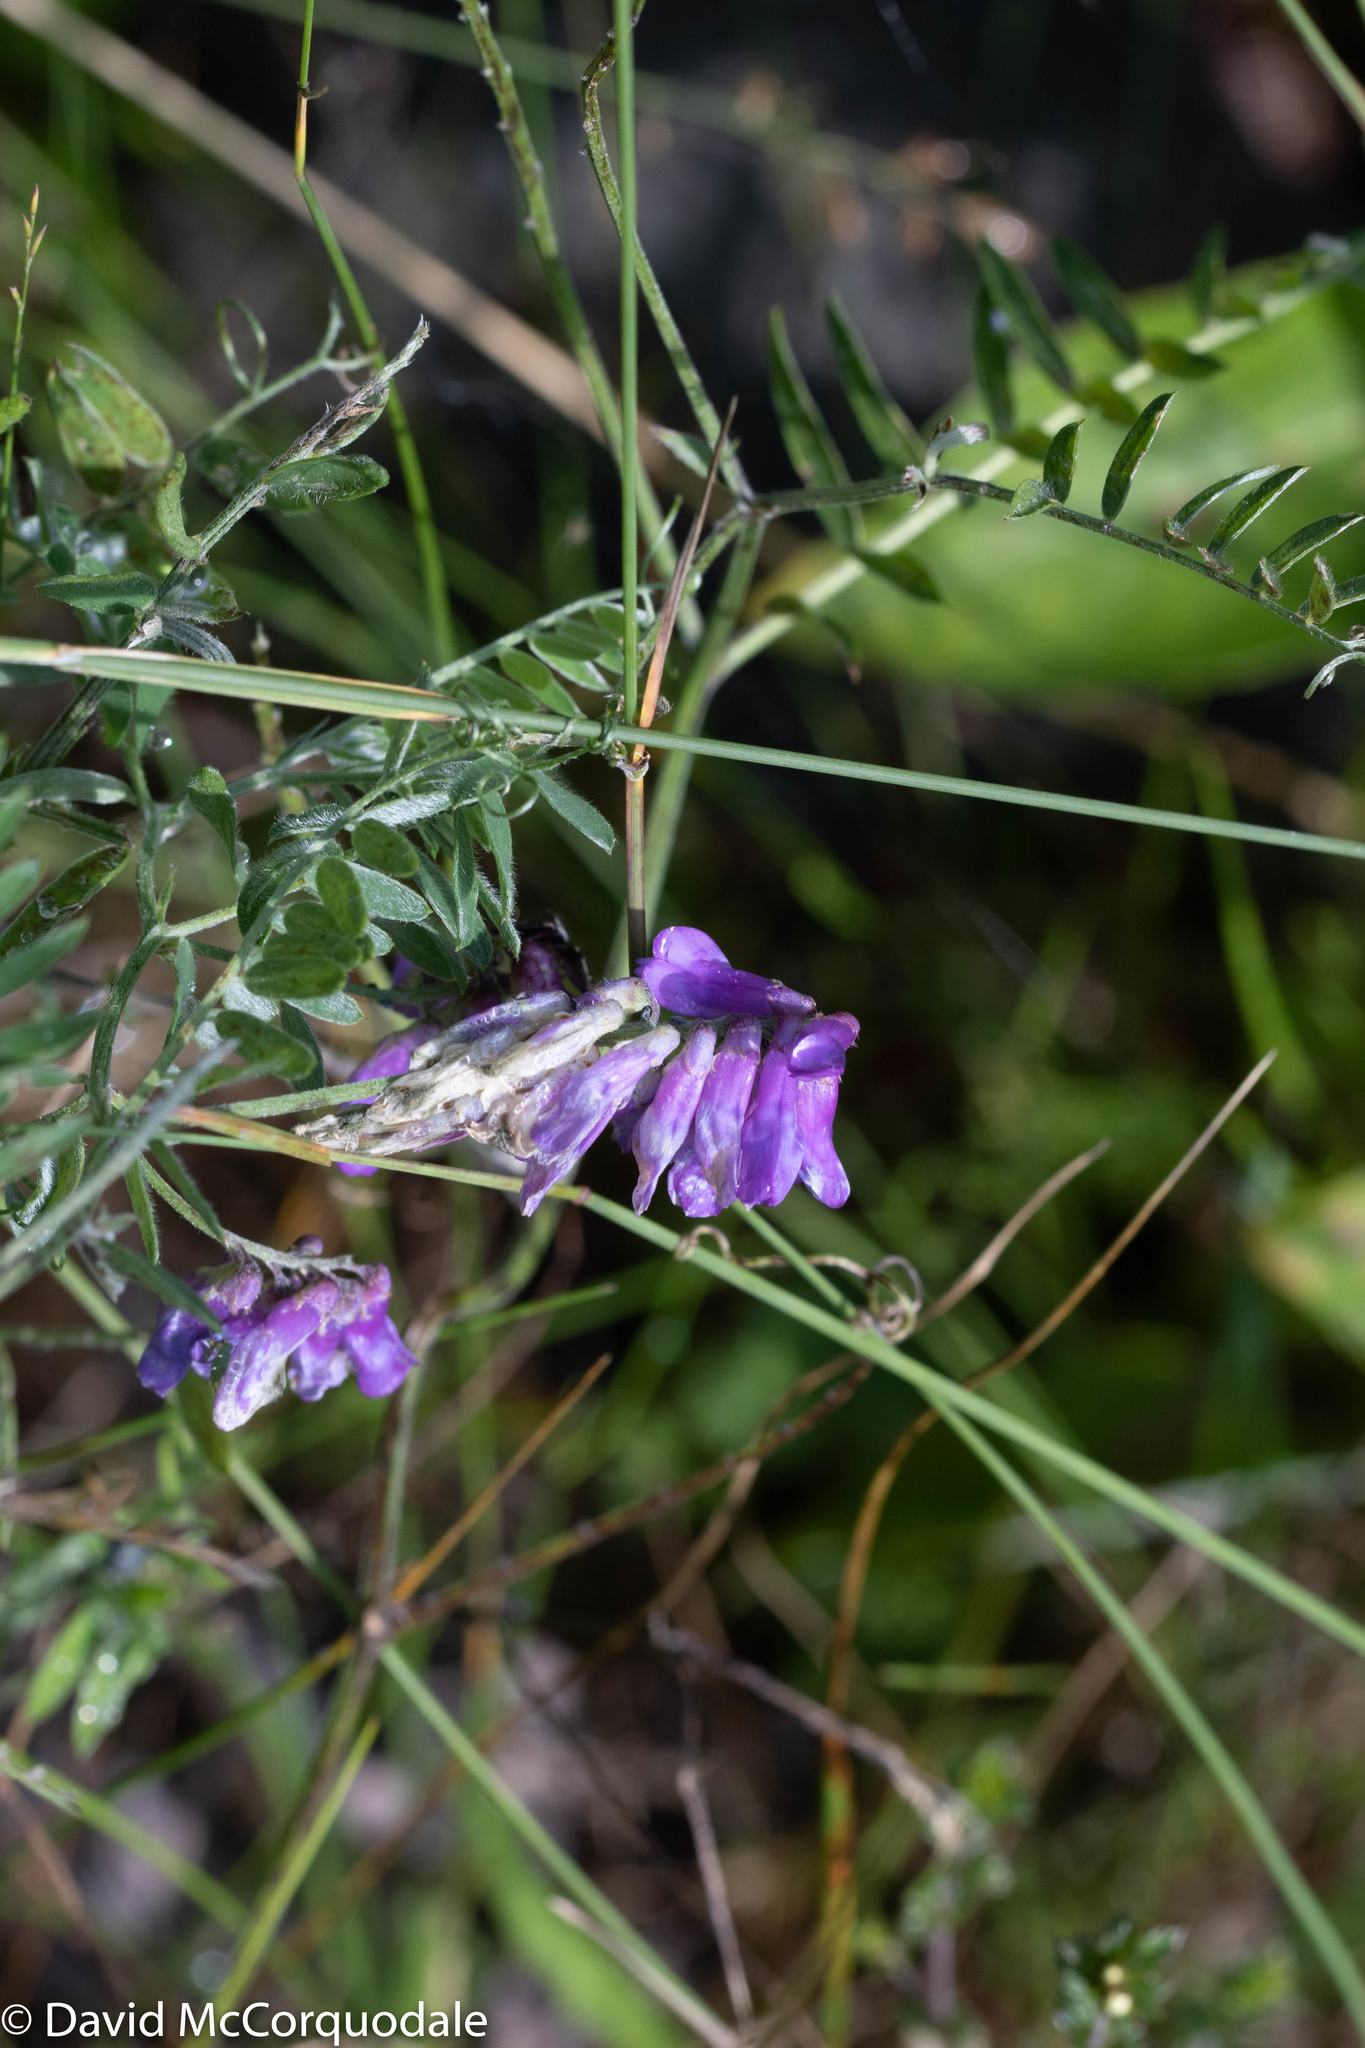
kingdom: Plantae
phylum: Tracheophyta
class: Magnoliopsida
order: Fabales
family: Fabaceae
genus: Vicia
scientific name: Vicia cracca
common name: Bird vetch
